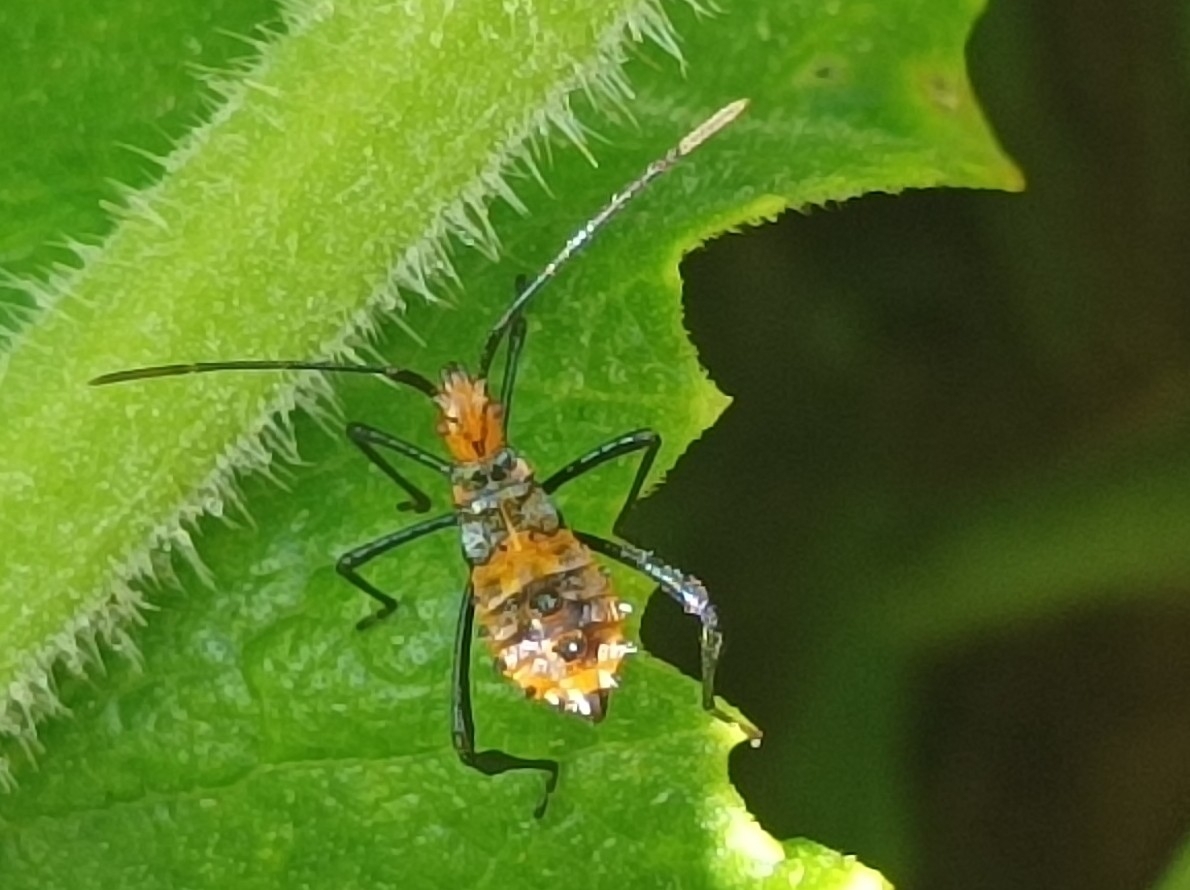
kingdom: Animalia
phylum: Arthropoda
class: Insecta
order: Hemiptera
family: Coreidae
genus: Leptoglossus
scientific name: Leptoglossus gonagra
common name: Citron bug
